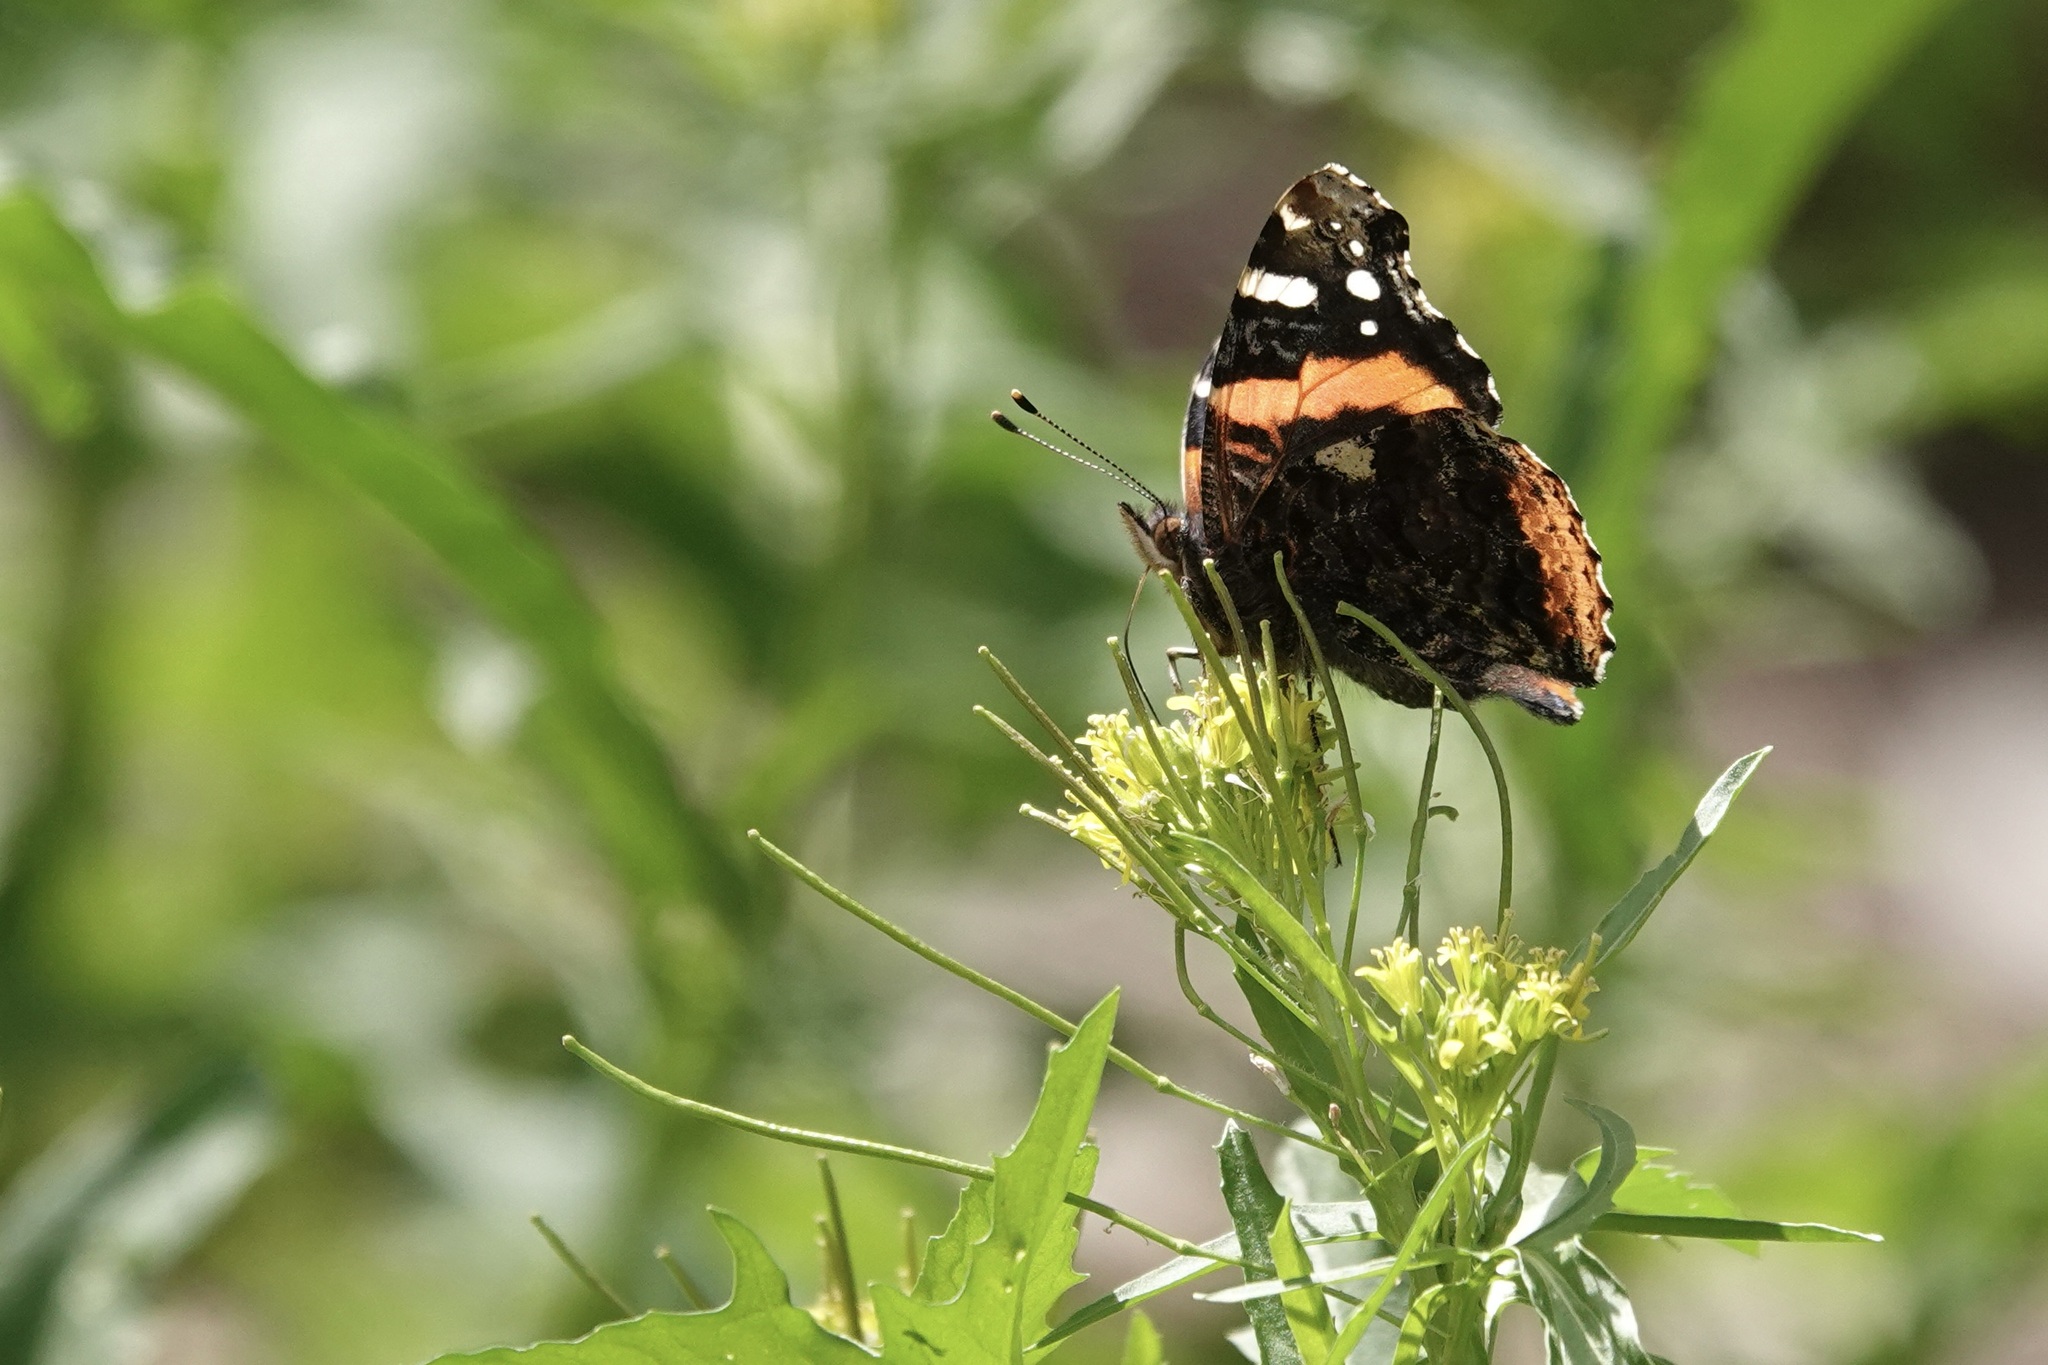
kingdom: Animalia
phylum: Arthropoda
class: Insecta
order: Lepidoptera
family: Nymphalidae
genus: Vanessa
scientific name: Vanessa atalanta
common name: Red admiral
